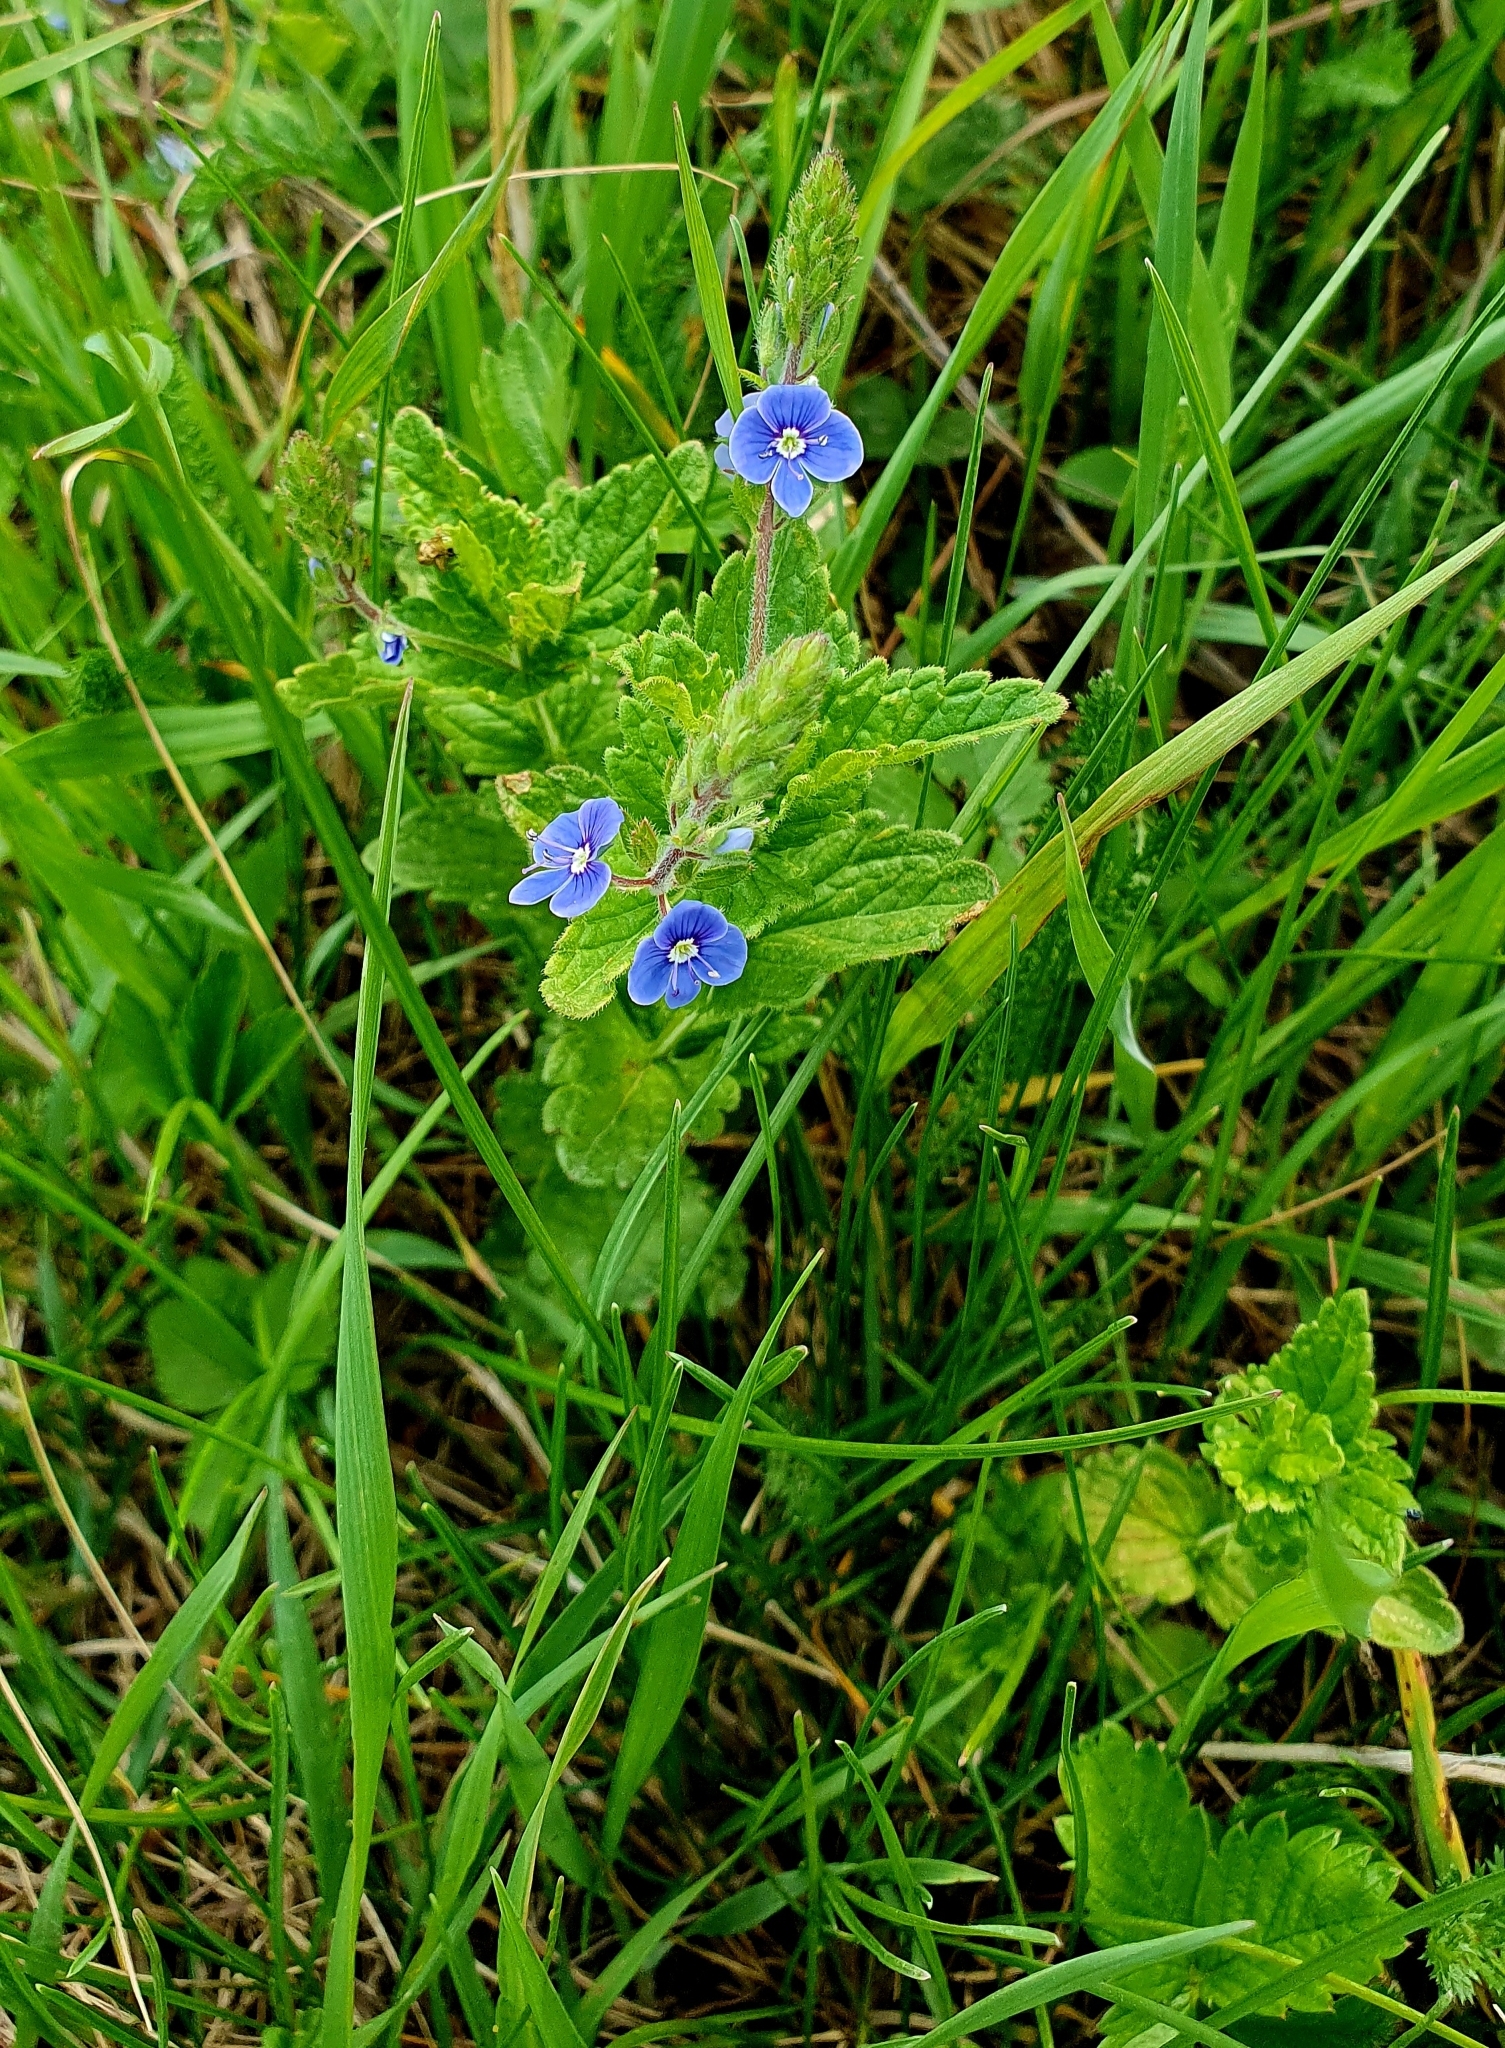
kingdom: Plantae
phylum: Tracheophyta
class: Magnoliopsida
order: Lamiales
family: Plantaginaceae
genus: Veronica
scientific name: Veronica chamaedrys
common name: Germander speedwell
